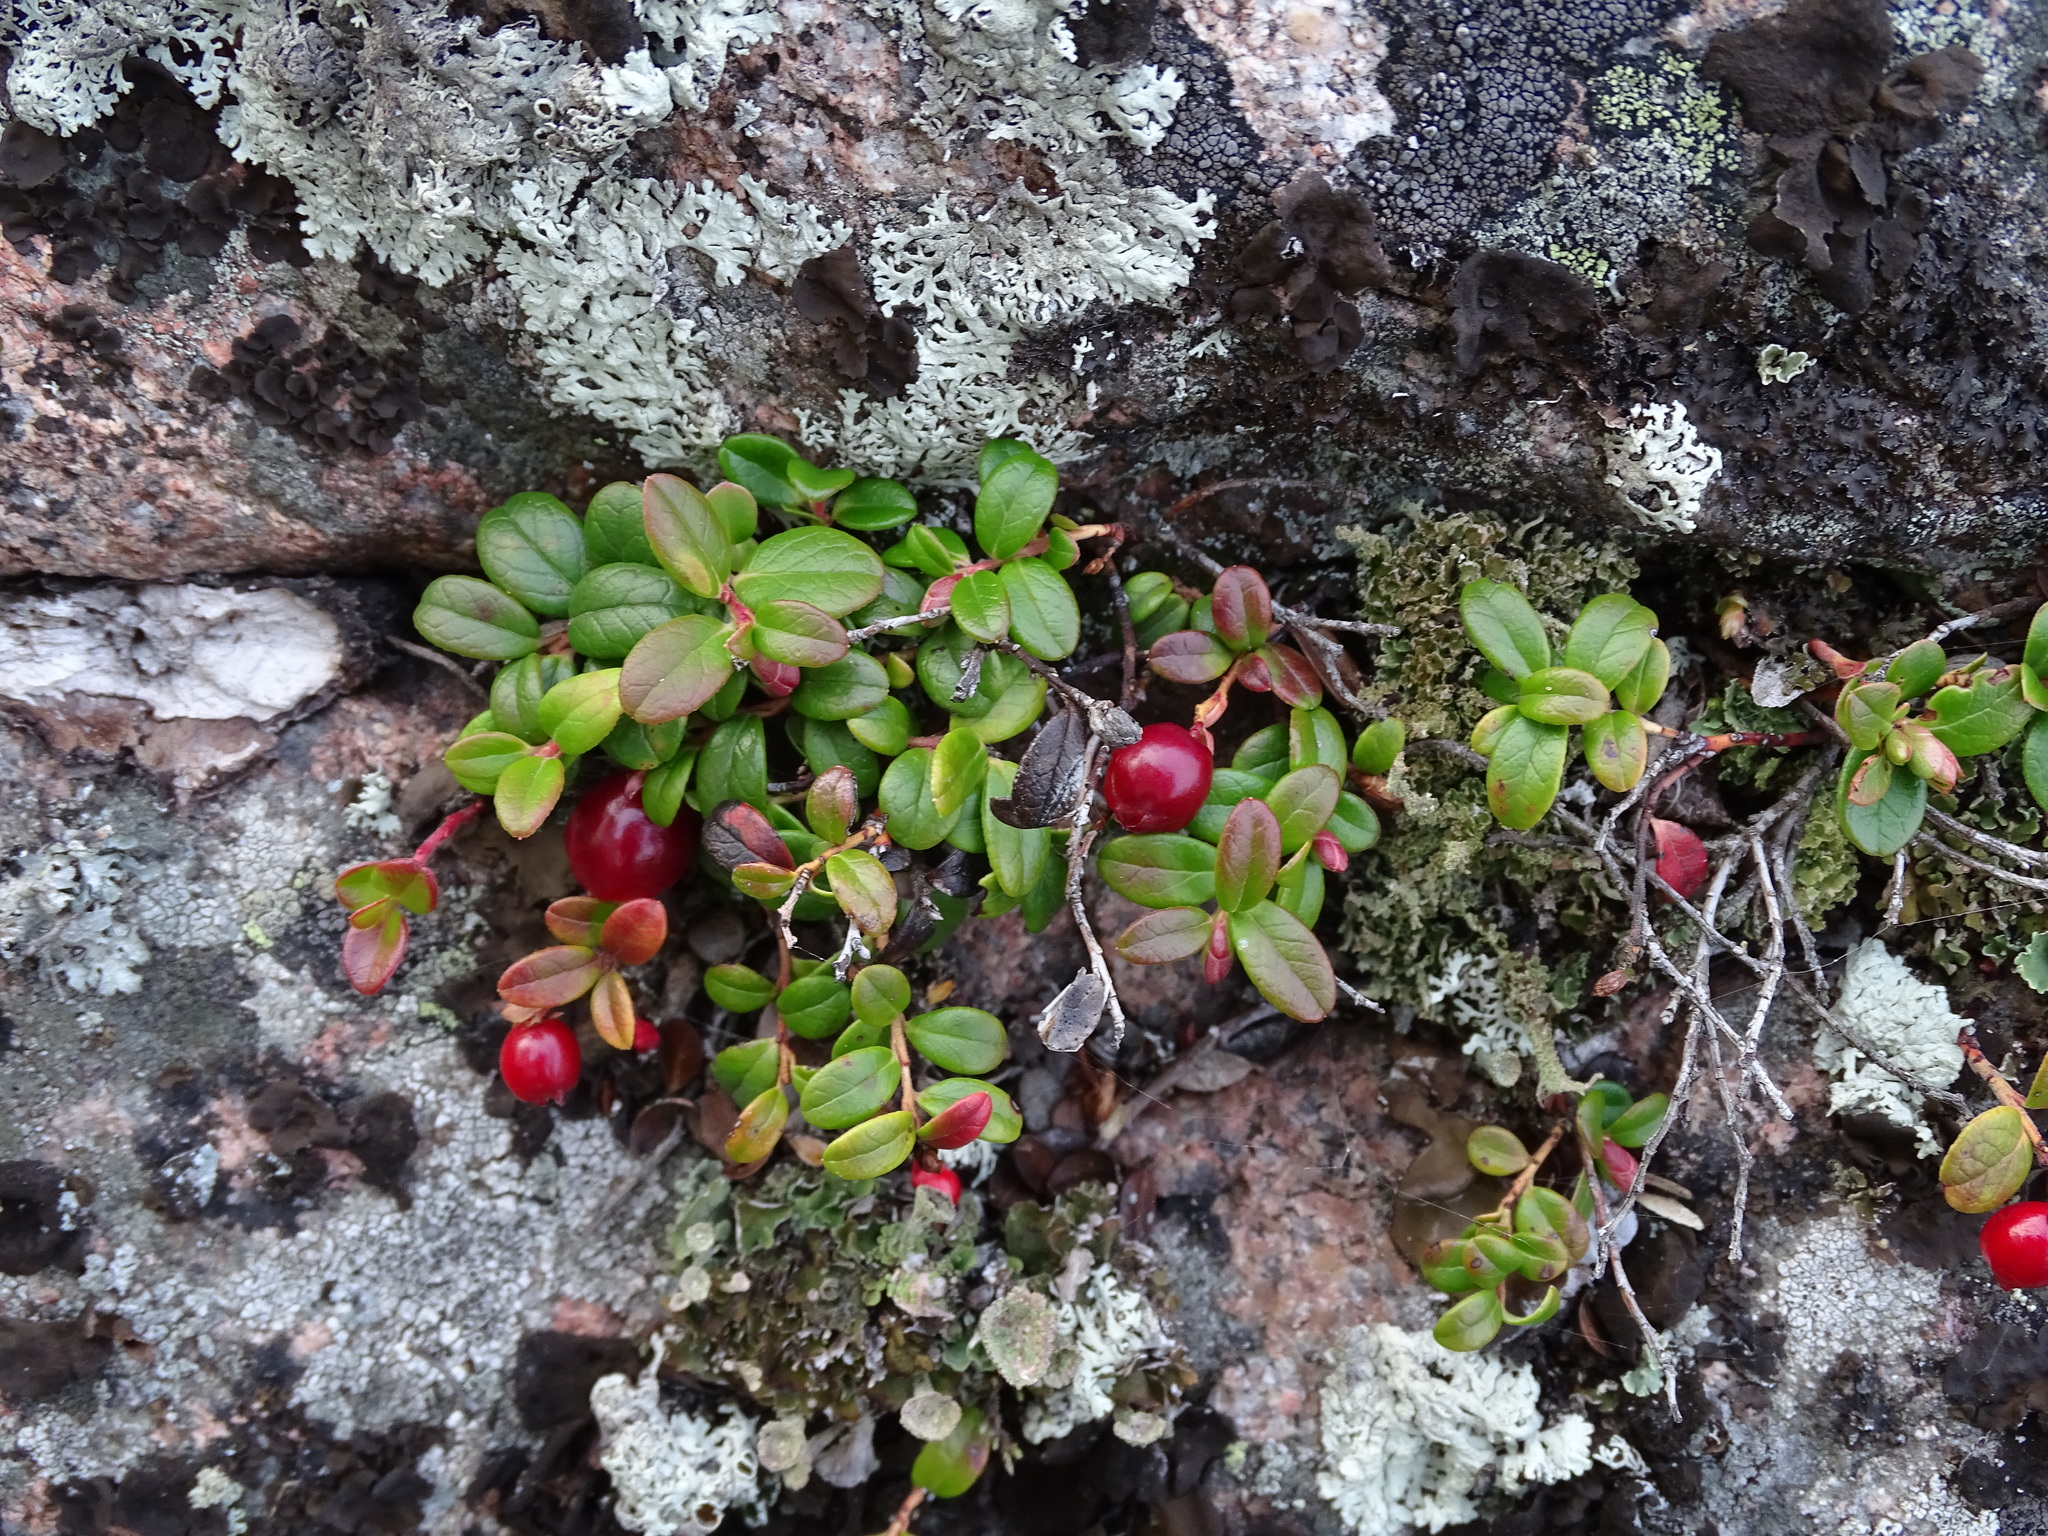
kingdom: Plantae
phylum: Tracheophyta
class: Magnoliopsida
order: Ericales
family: Ericaceae
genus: Vaccinium
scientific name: Vaccinium vitis-idaea
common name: Cowberry
